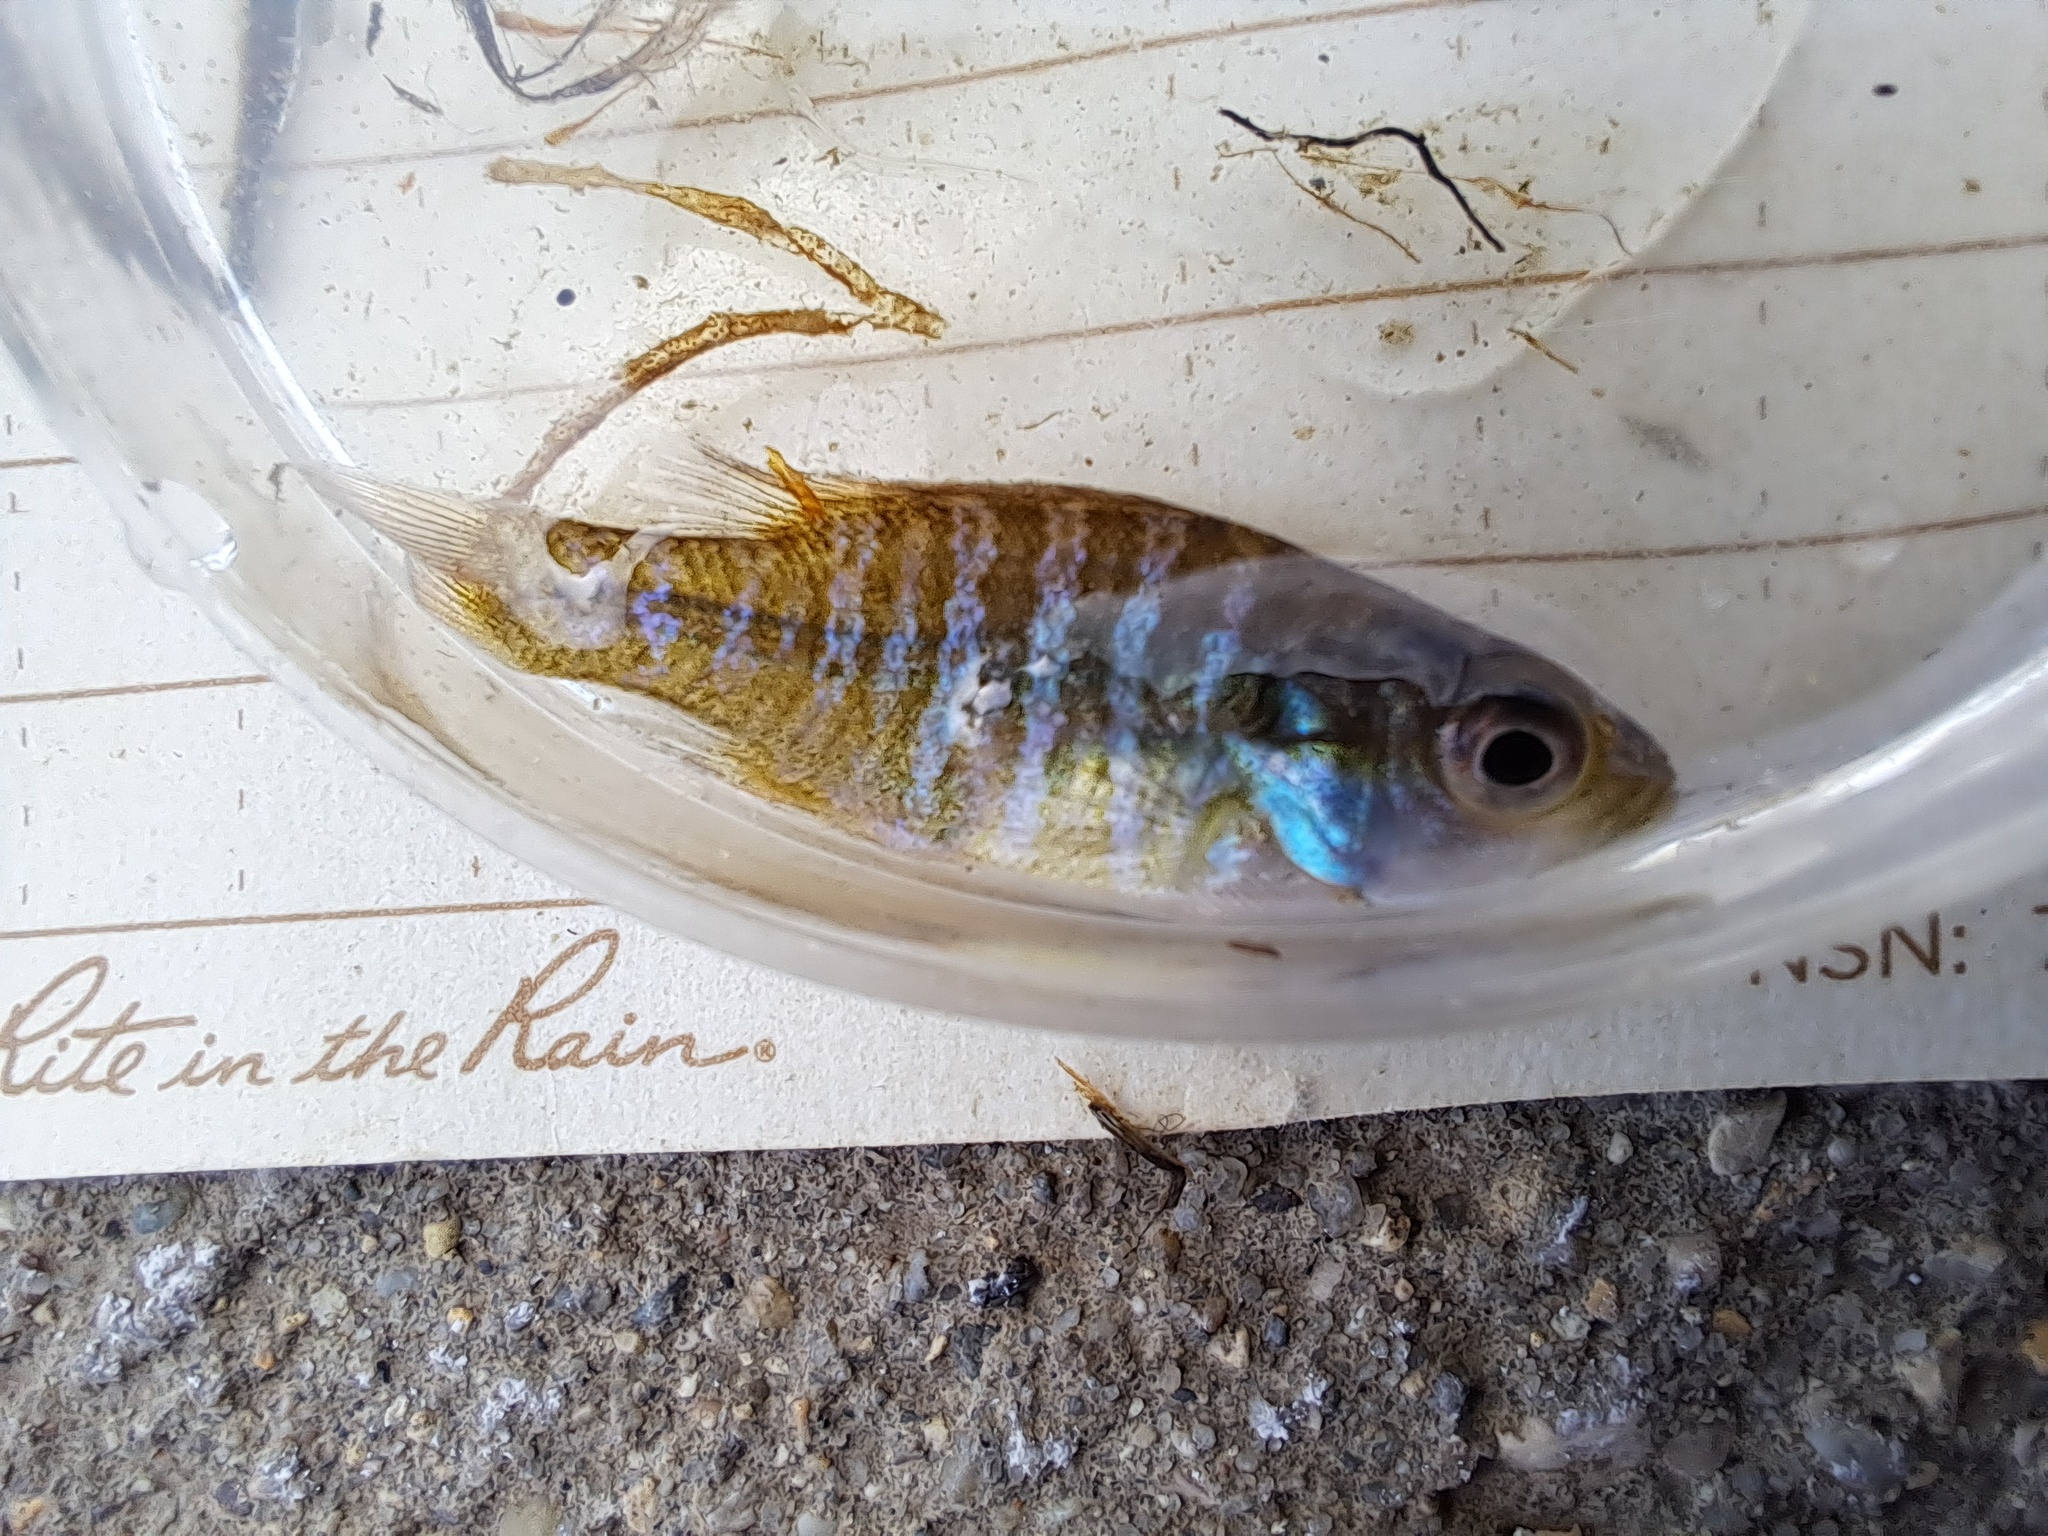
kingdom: Animalia
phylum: Chordata
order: Perciformes
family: Centrarchidae
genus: Lepomis
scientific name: Lepomis macrochirus
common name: Bluegill
